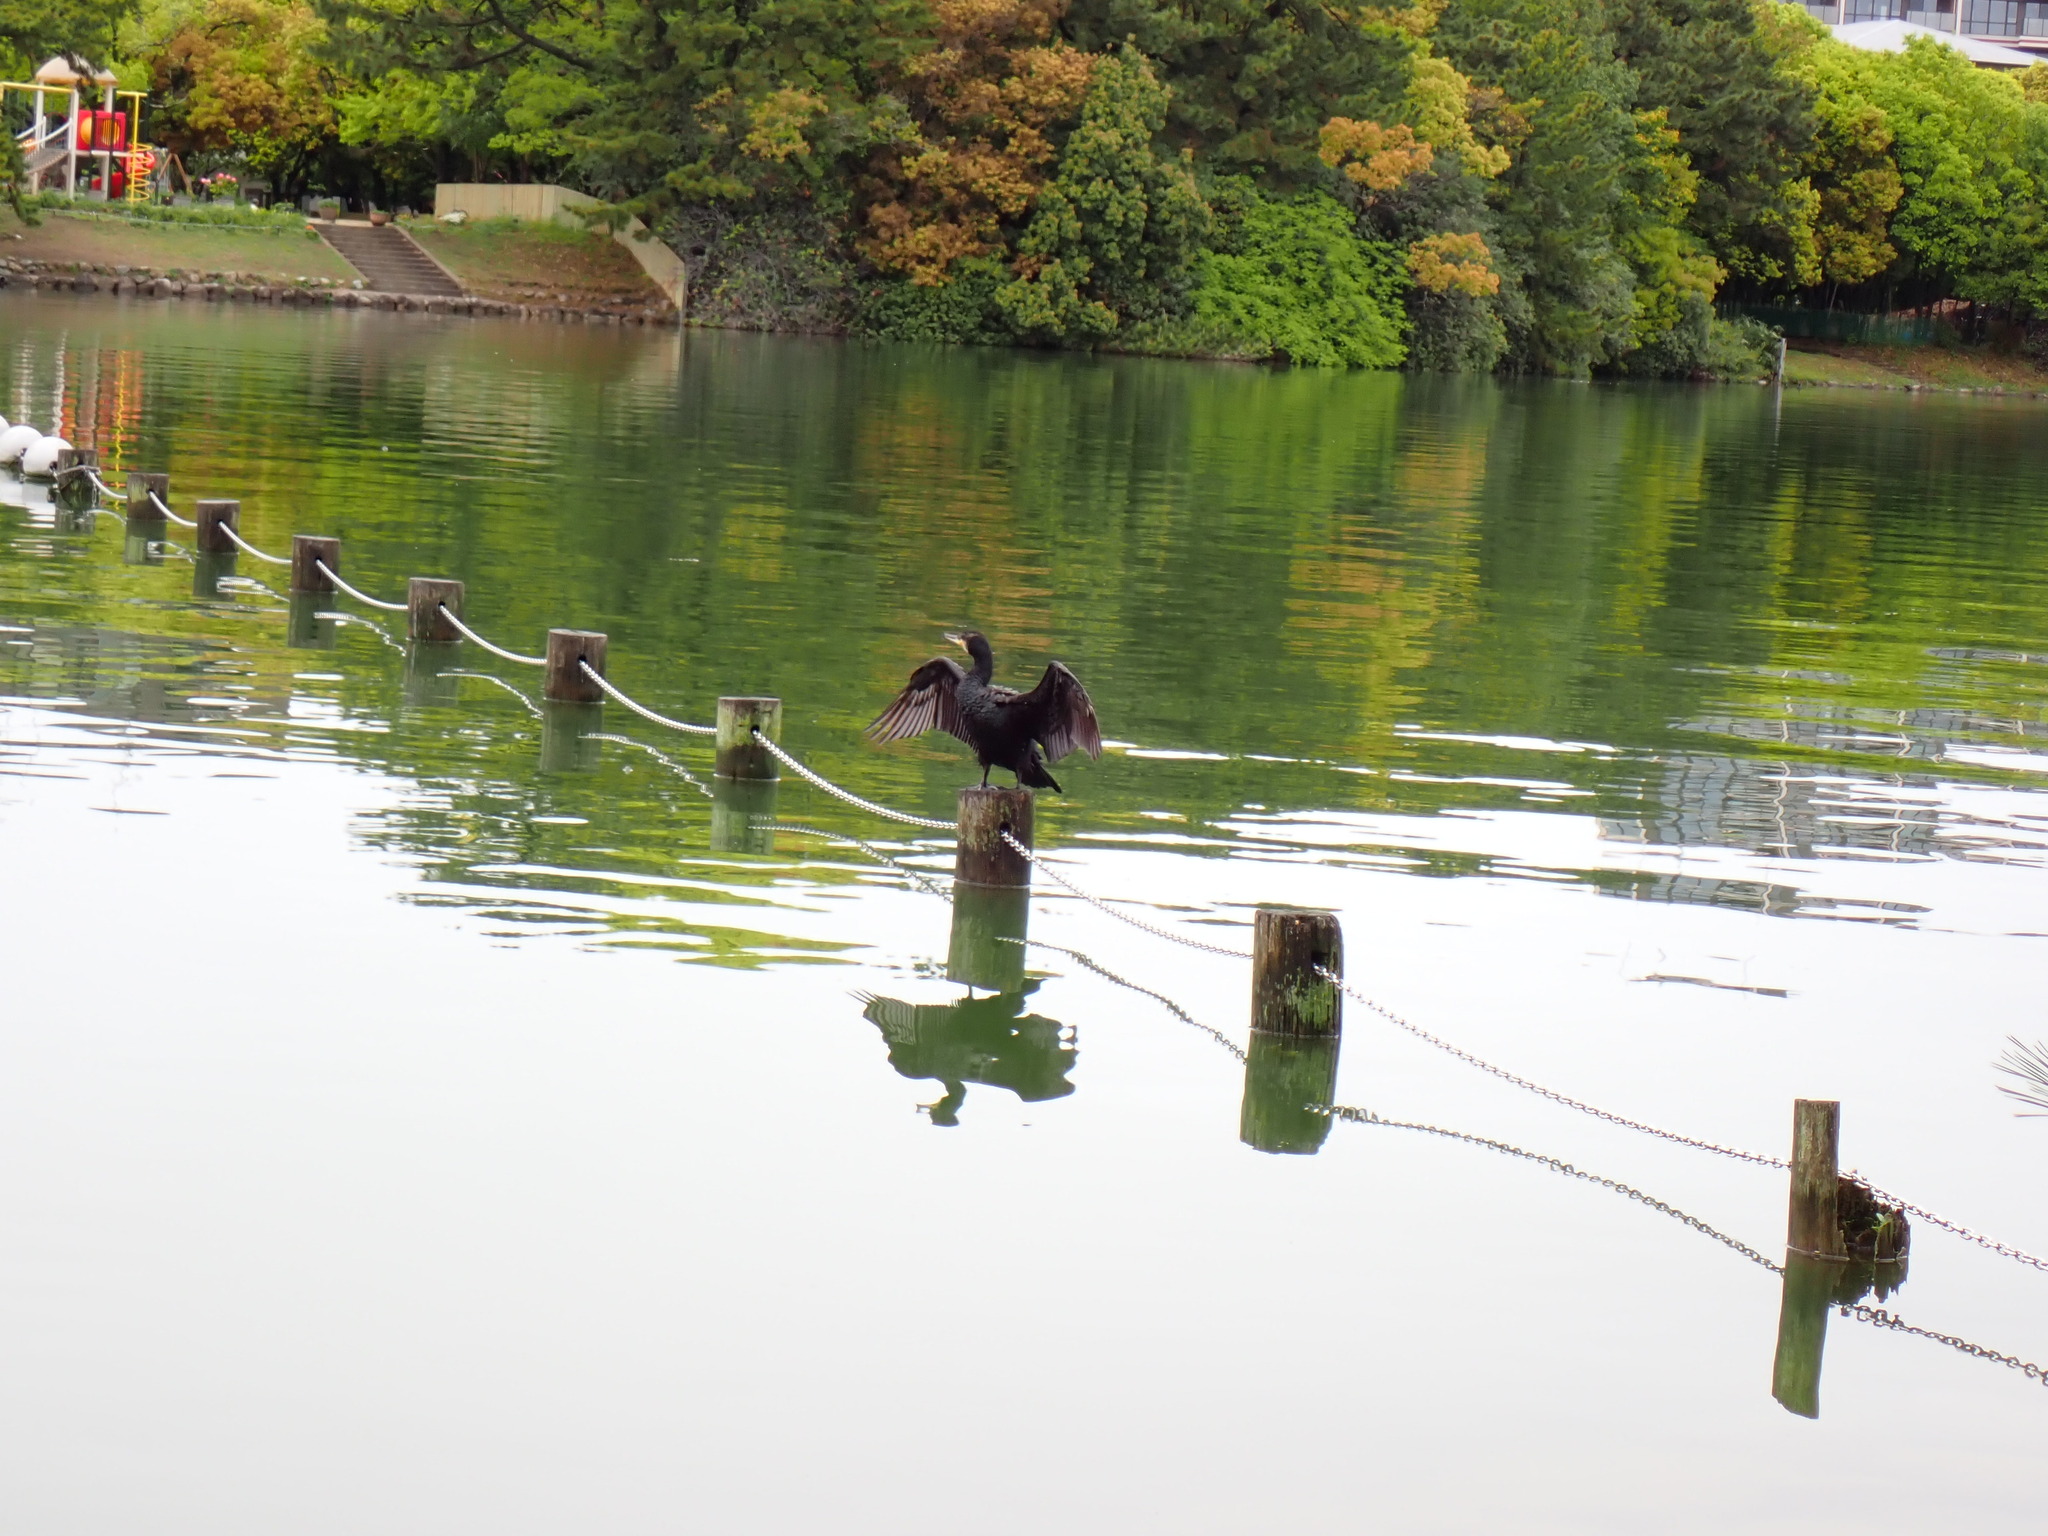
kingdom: Animalia
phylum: Chordata
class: Aves
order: Suliformes
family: Phalacrocoracidae
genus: Phalacrocorax
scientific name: Phalacrocorax carbo
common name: Great cormorant
